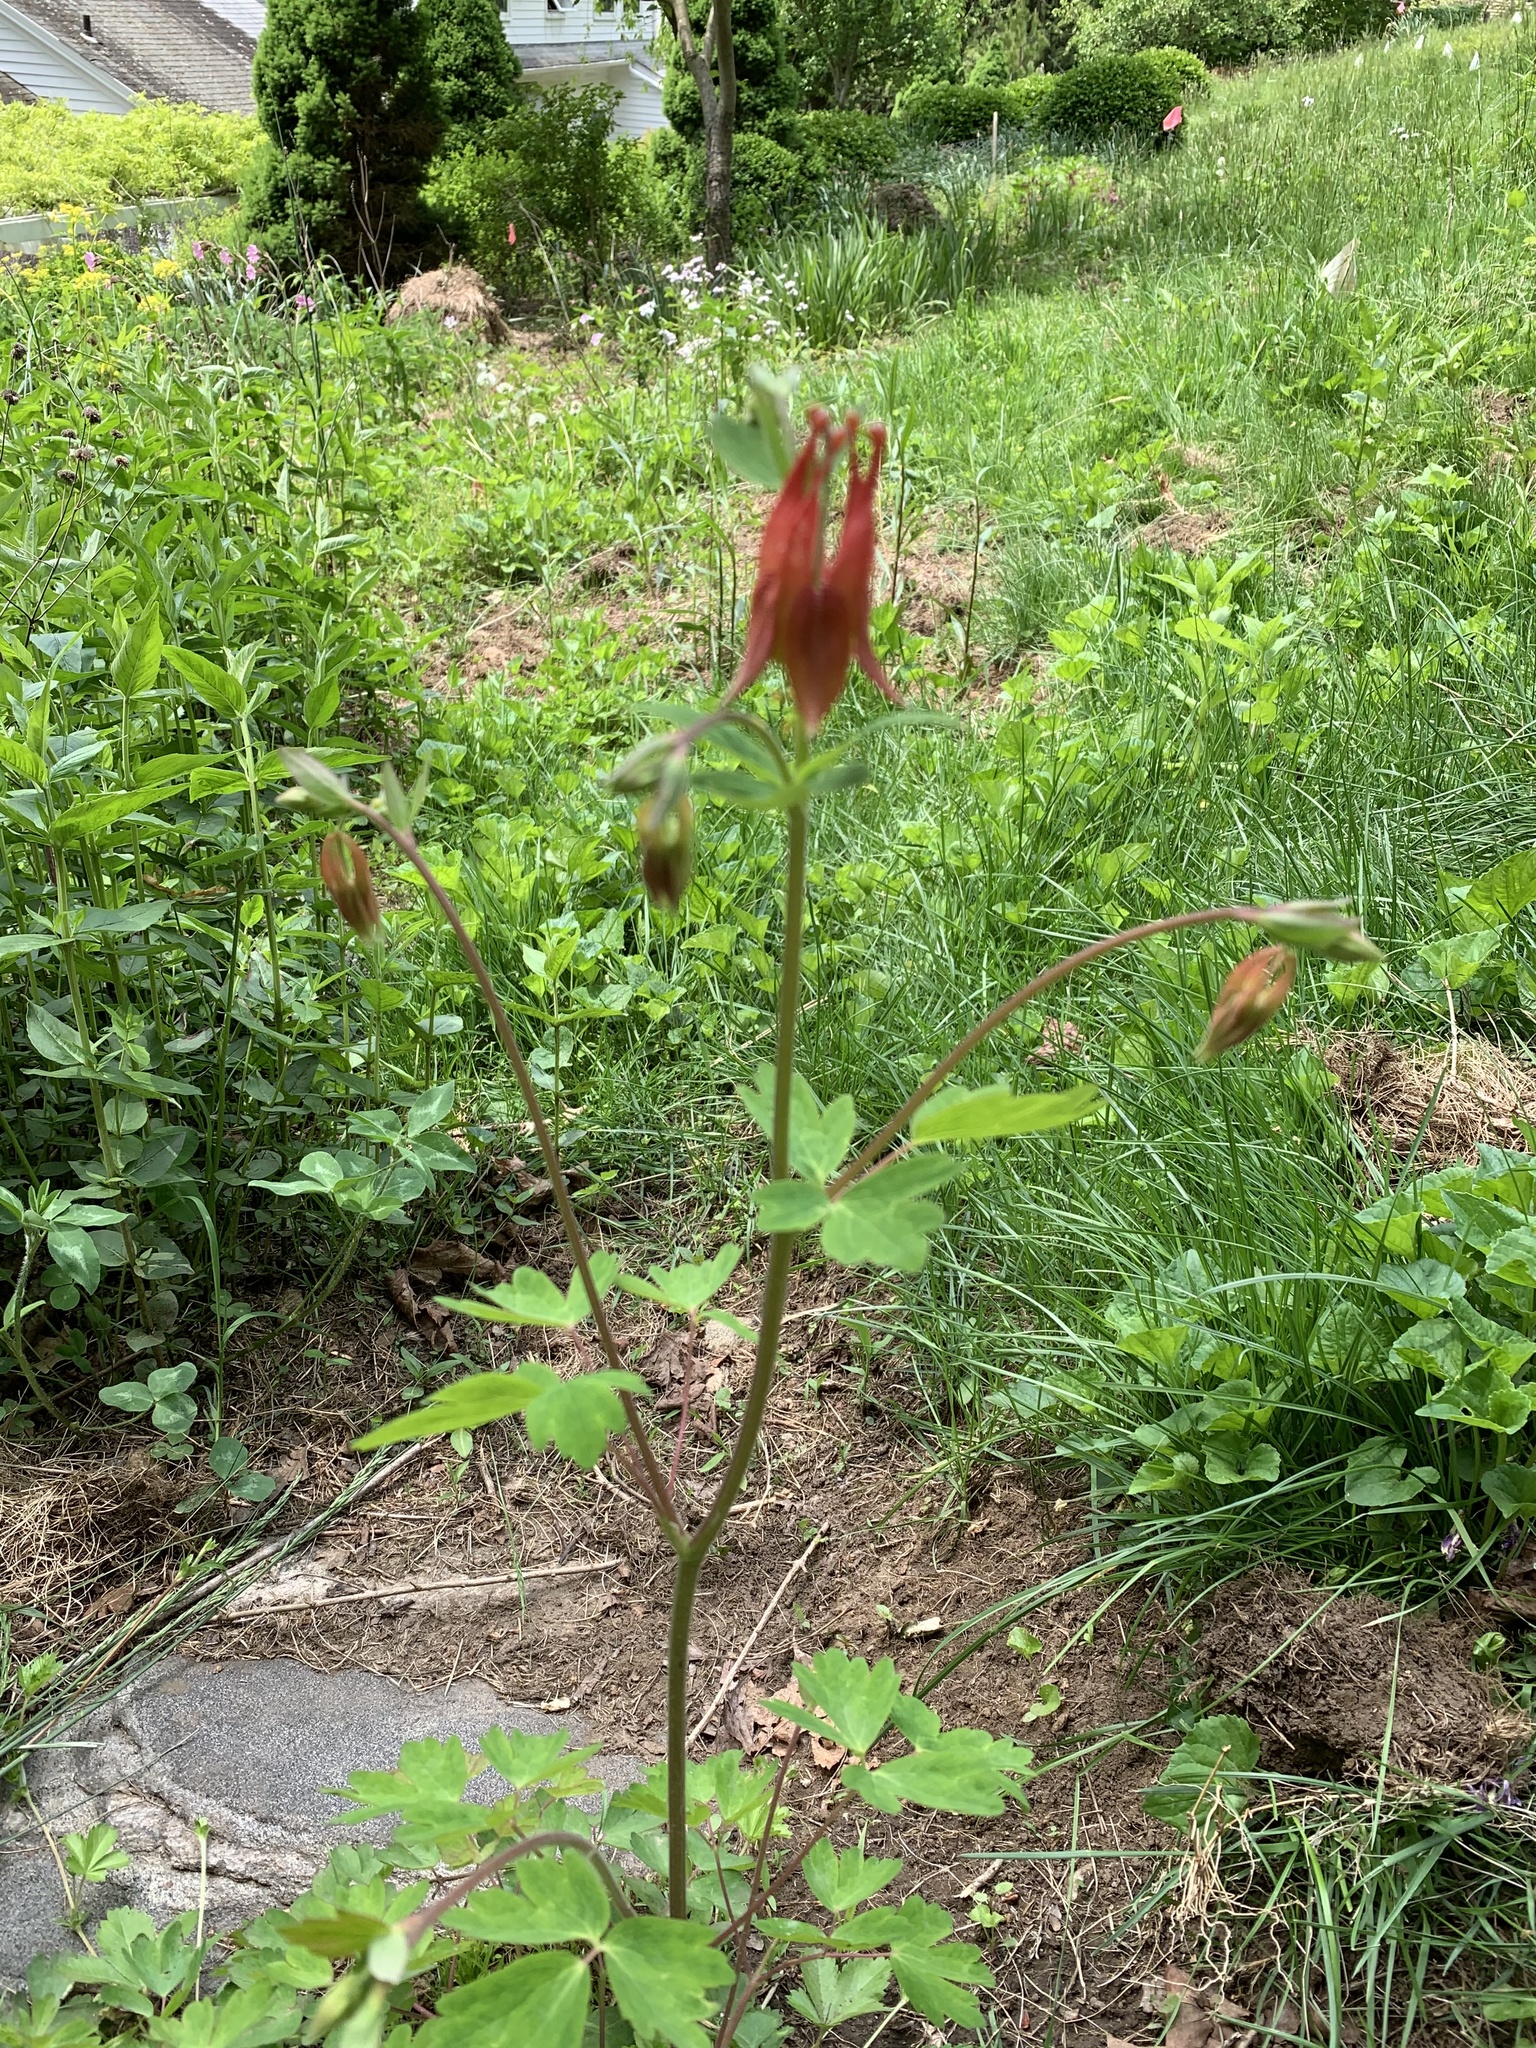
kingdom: Plantae
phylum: Tracheophyta
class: Magnoliopsida
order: Ranunculales
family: Ranunculaceae
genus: Aquilegia
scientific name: Aquilegia canadensis
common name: American columbine
